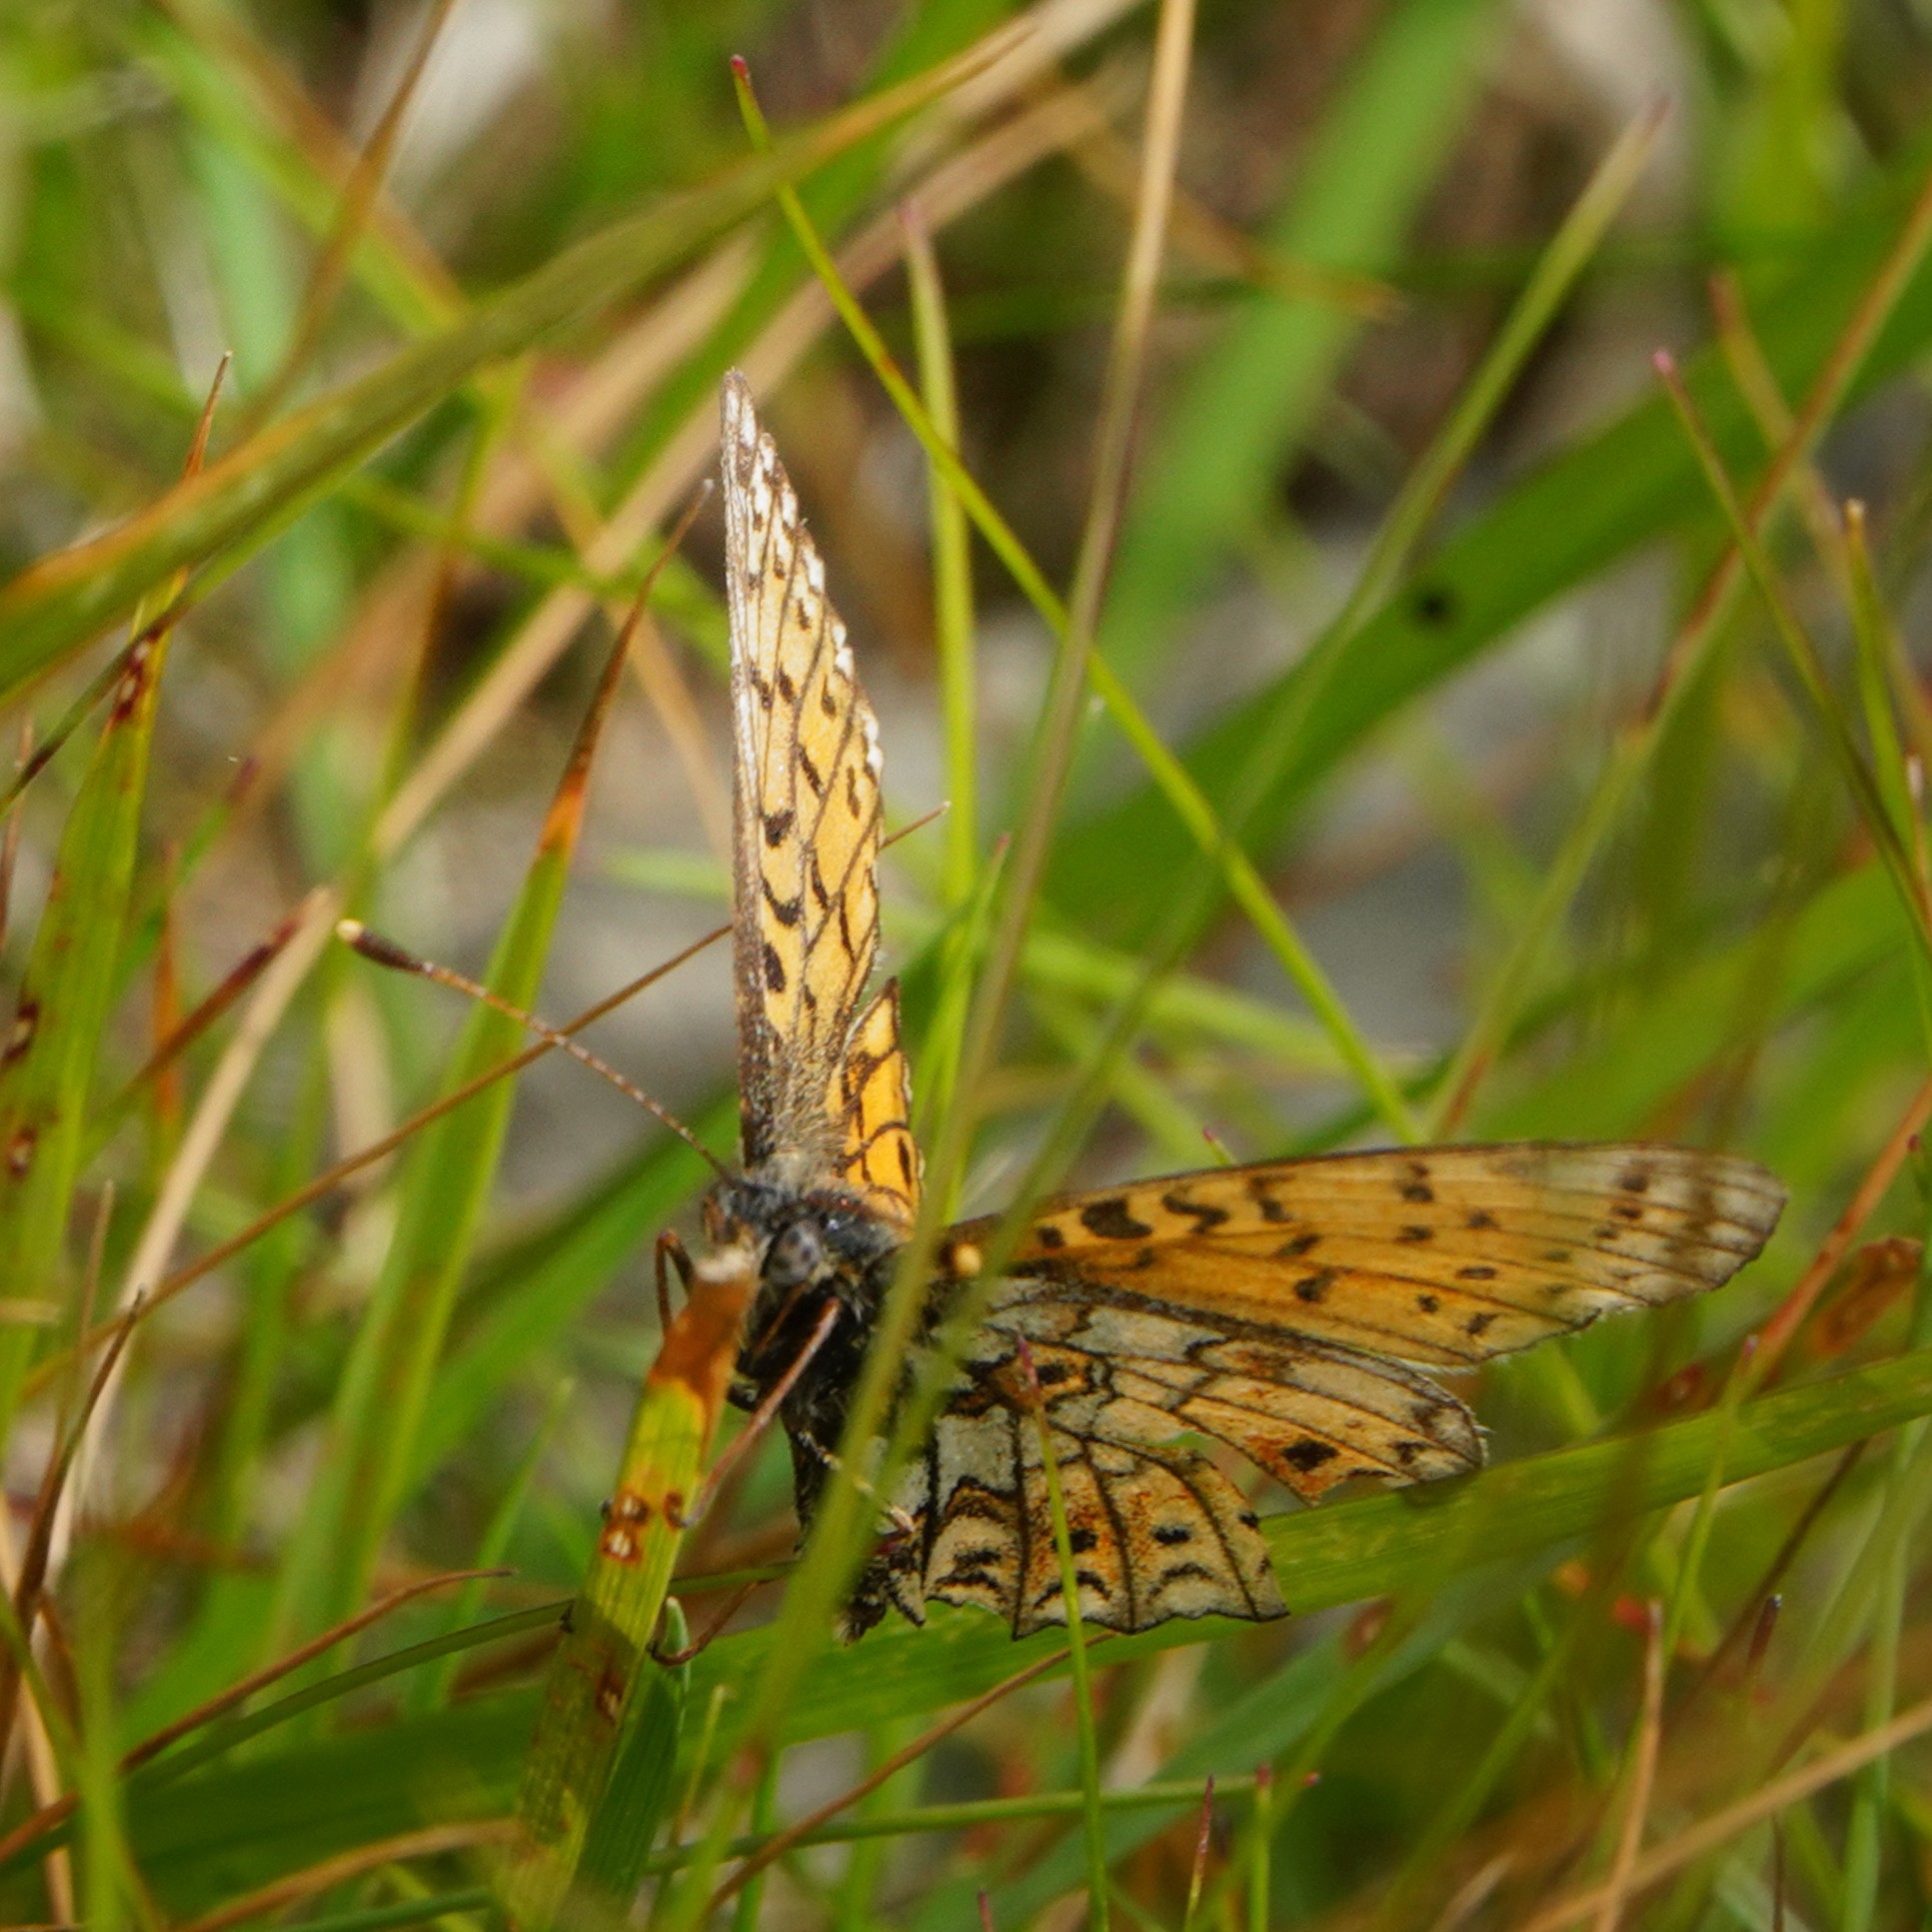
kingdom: Animalia
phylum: Arthropoda
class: Insecta
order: Lepidoptera
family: Nymphalidae
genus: Boloria
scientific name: Boloria selene
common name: Small pearl-bordered fritillary
